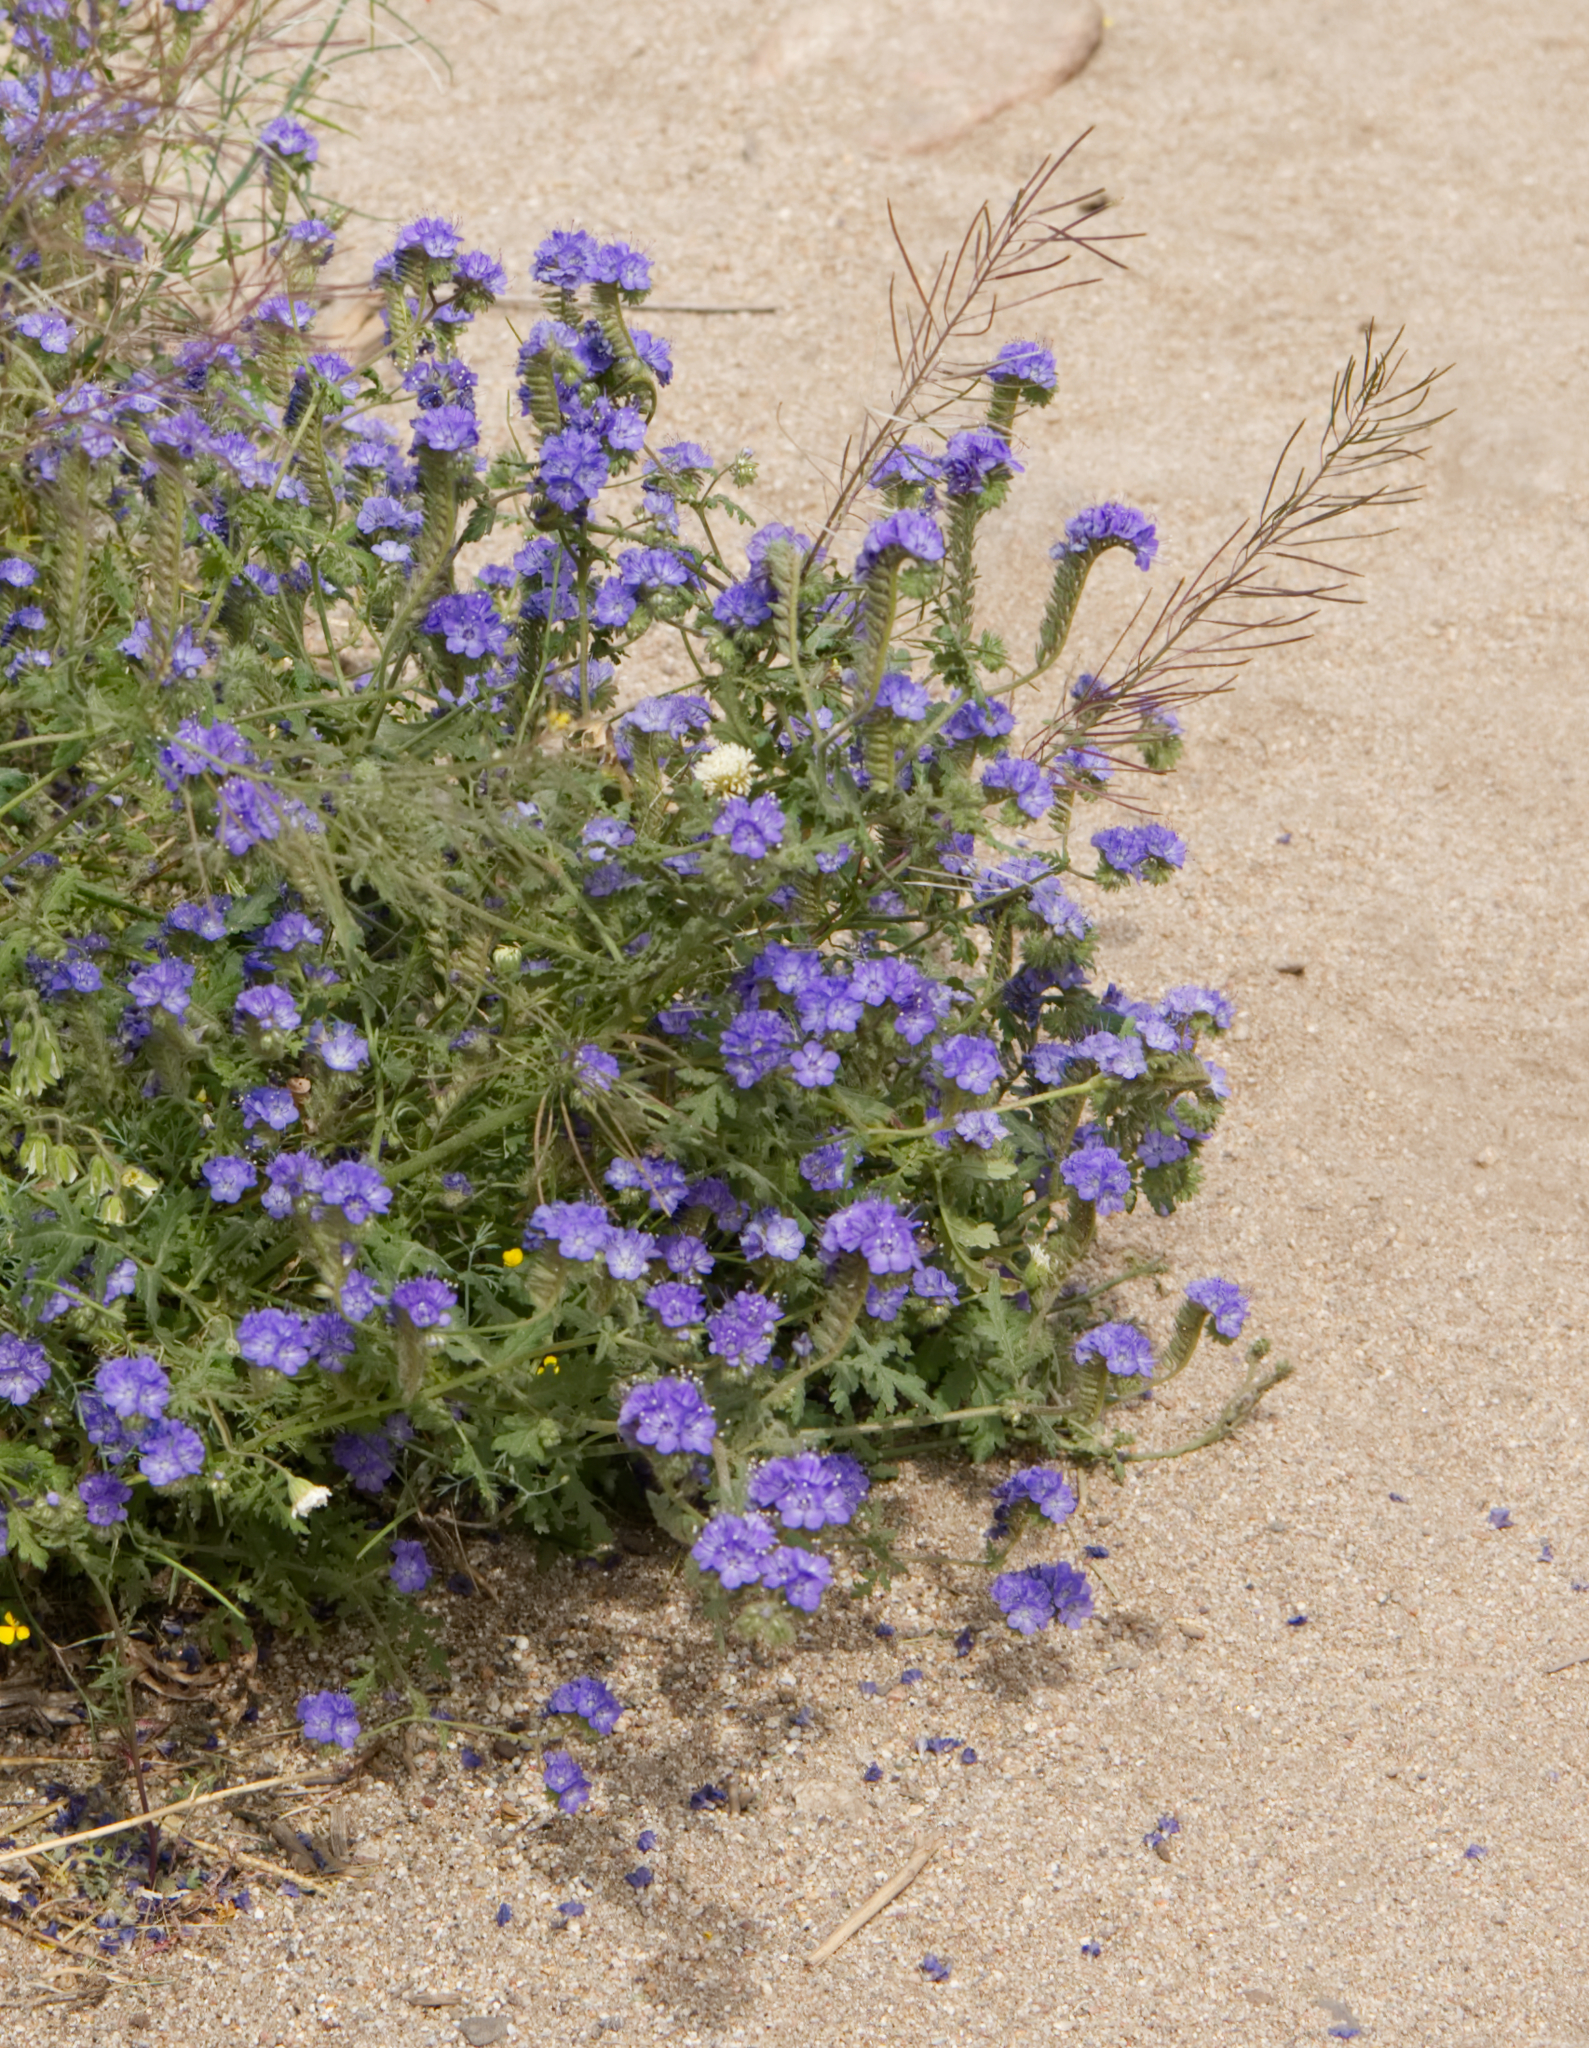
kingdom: Plantae
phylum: Tracheophyta
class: Magnoliopsida
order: Boraginales
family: Hydrophyllaceae
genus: Phacelia
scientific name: Phacelia distans
